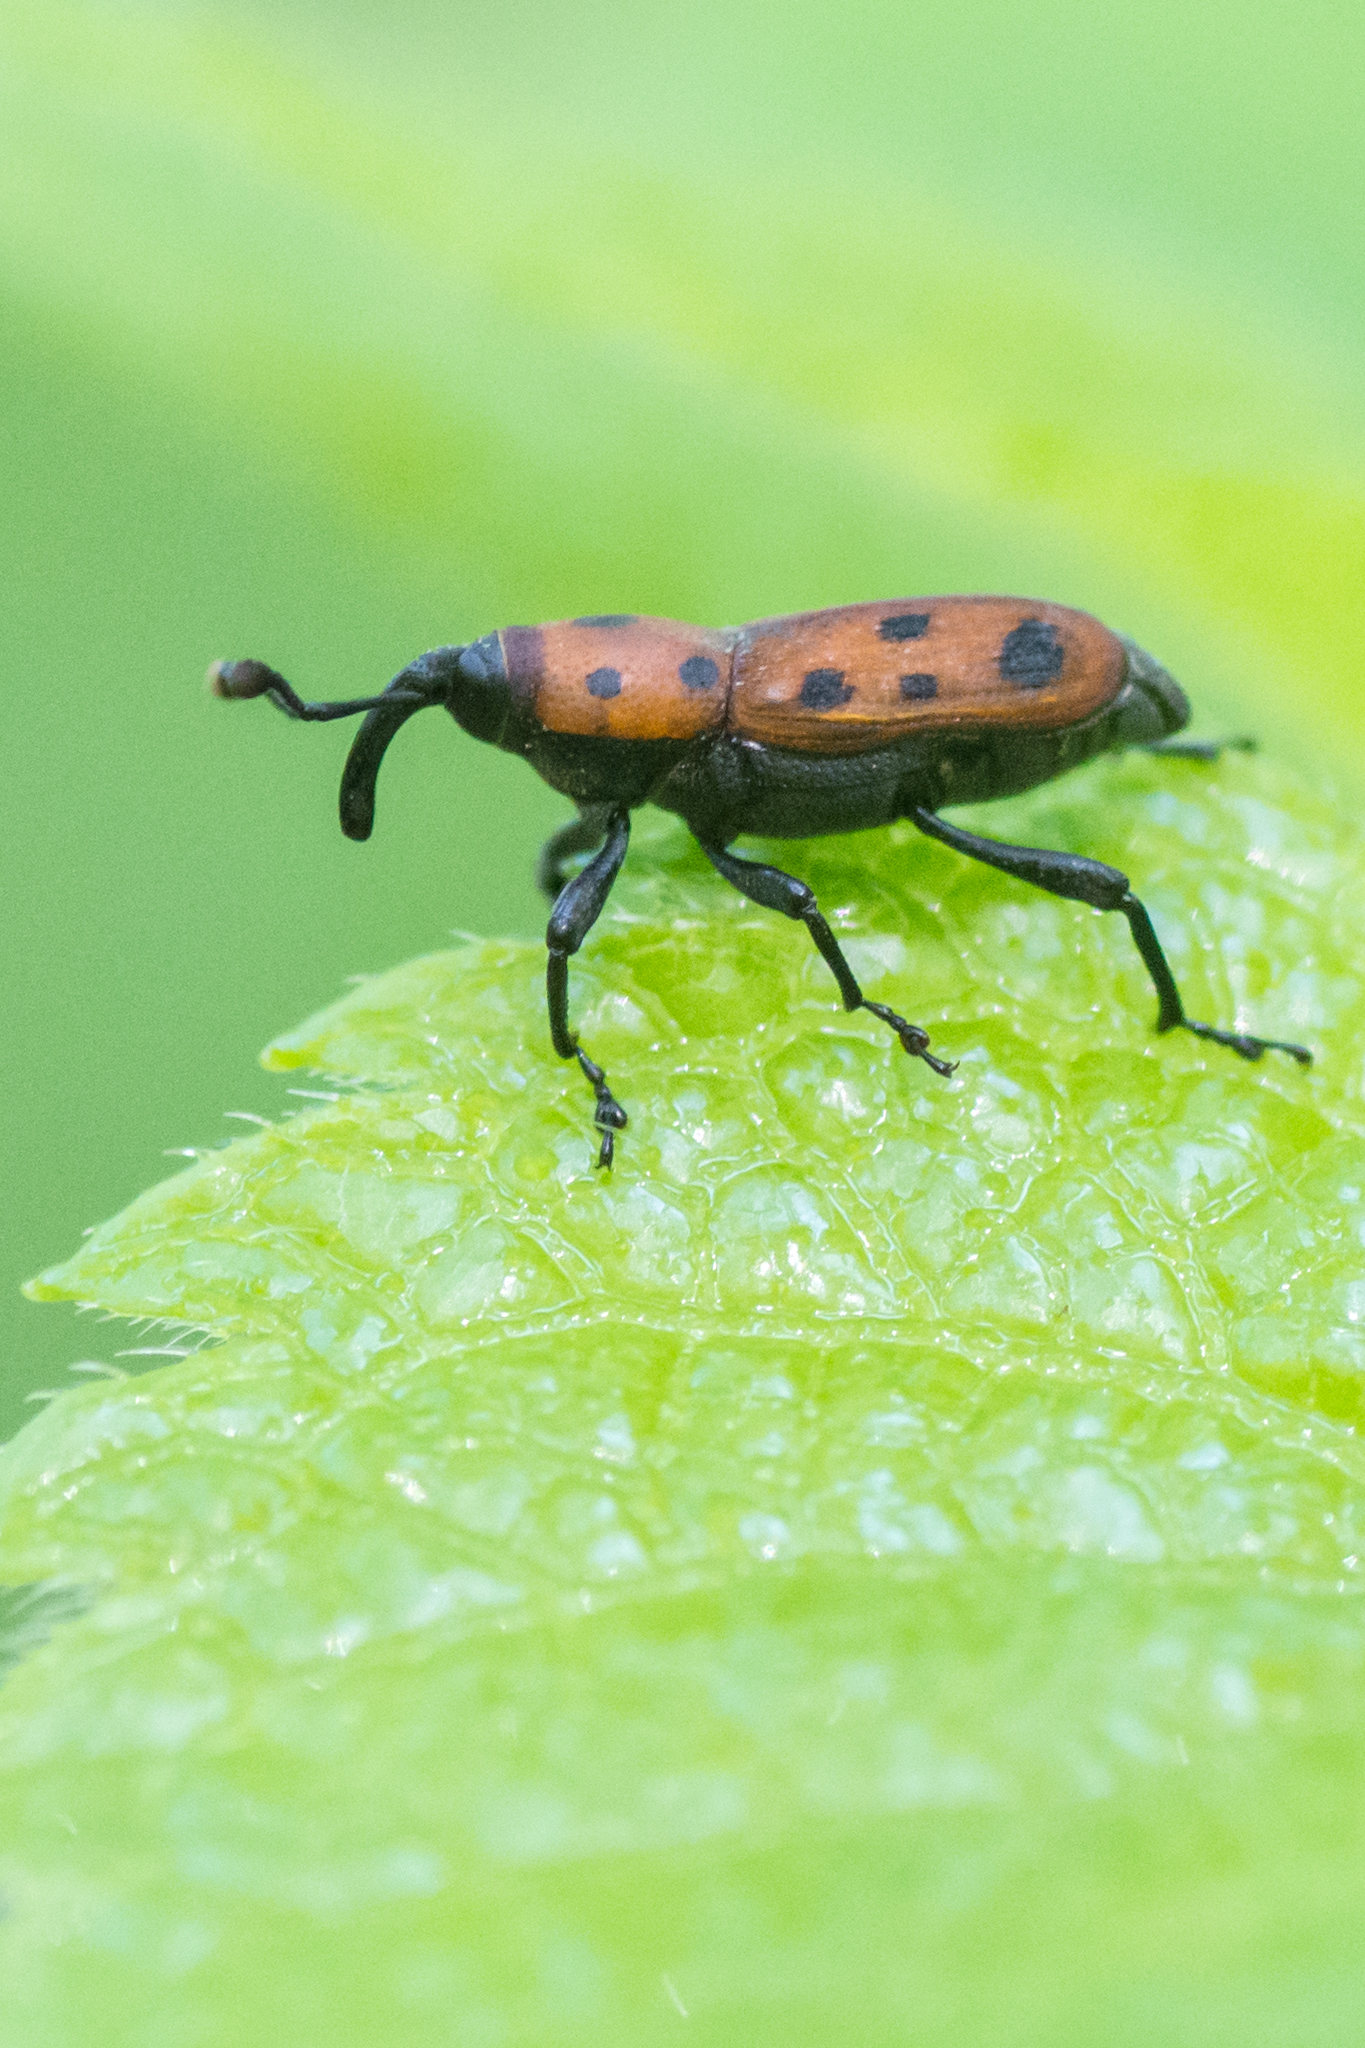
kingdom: Animalia
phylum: Arthropoda
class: Insecta
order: Coleoptera
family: Dryophthoridae
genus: Rhodobaenus
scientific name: Rhodobaenus tredecimpunctatus
